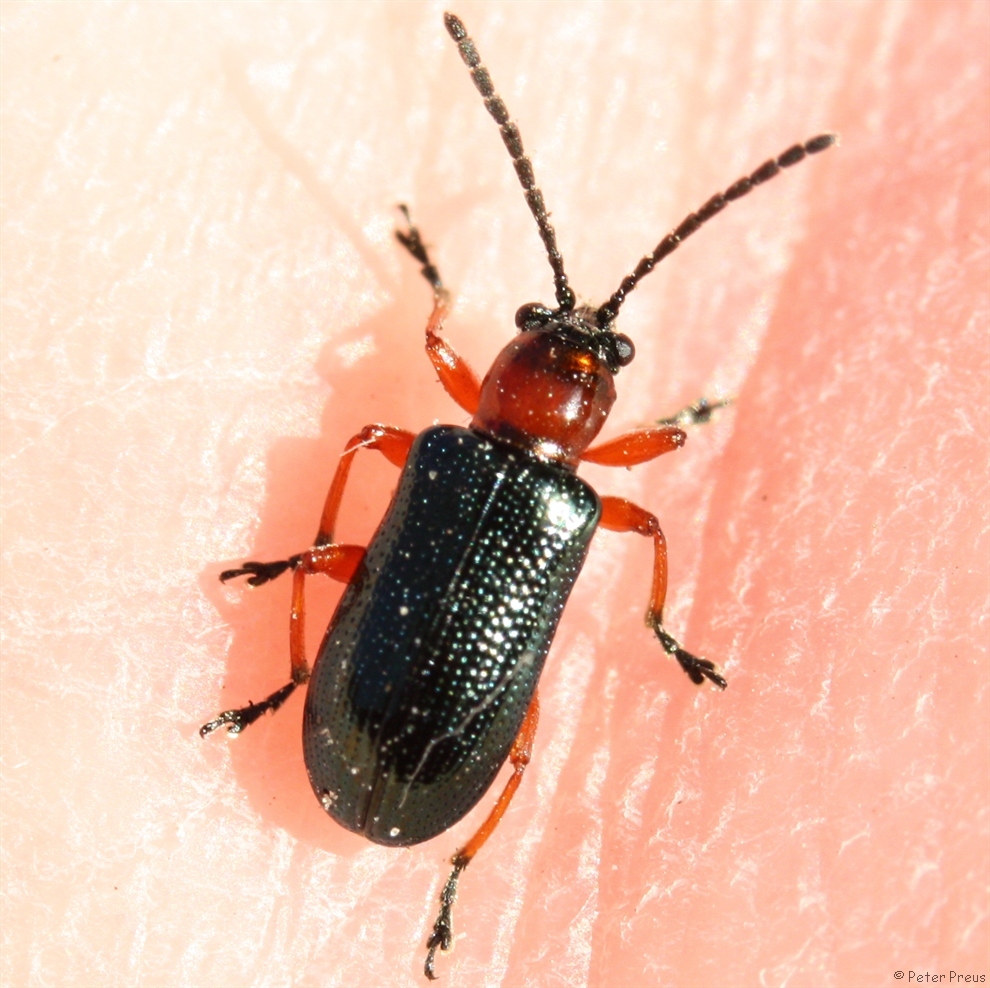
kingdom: Animalia
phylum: Arthropoda
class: Insecta
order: Coleoptera
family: Chrysomelidae
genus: Oulema
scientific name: Oulema
